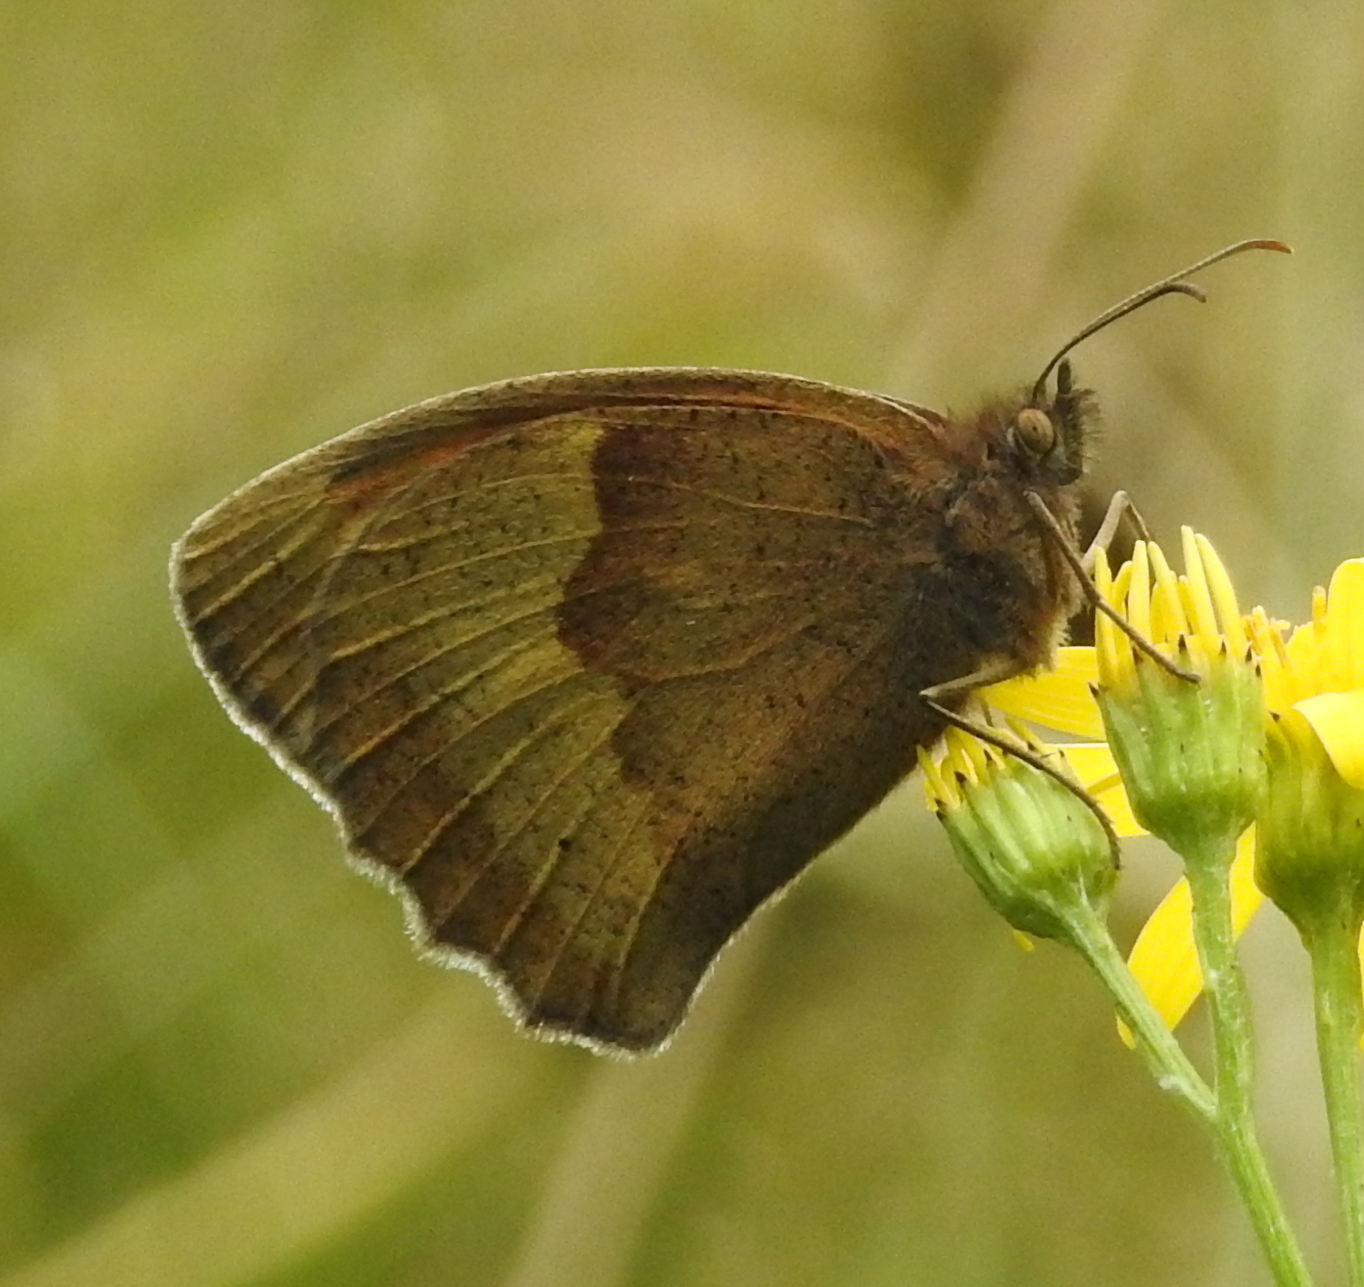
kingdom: Animalia
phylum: Arthropoda
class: Insecta
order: Lepidoptera
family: Nymphalidae
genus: Maniola
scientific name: Maniola jurtina
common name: Meadow brown
